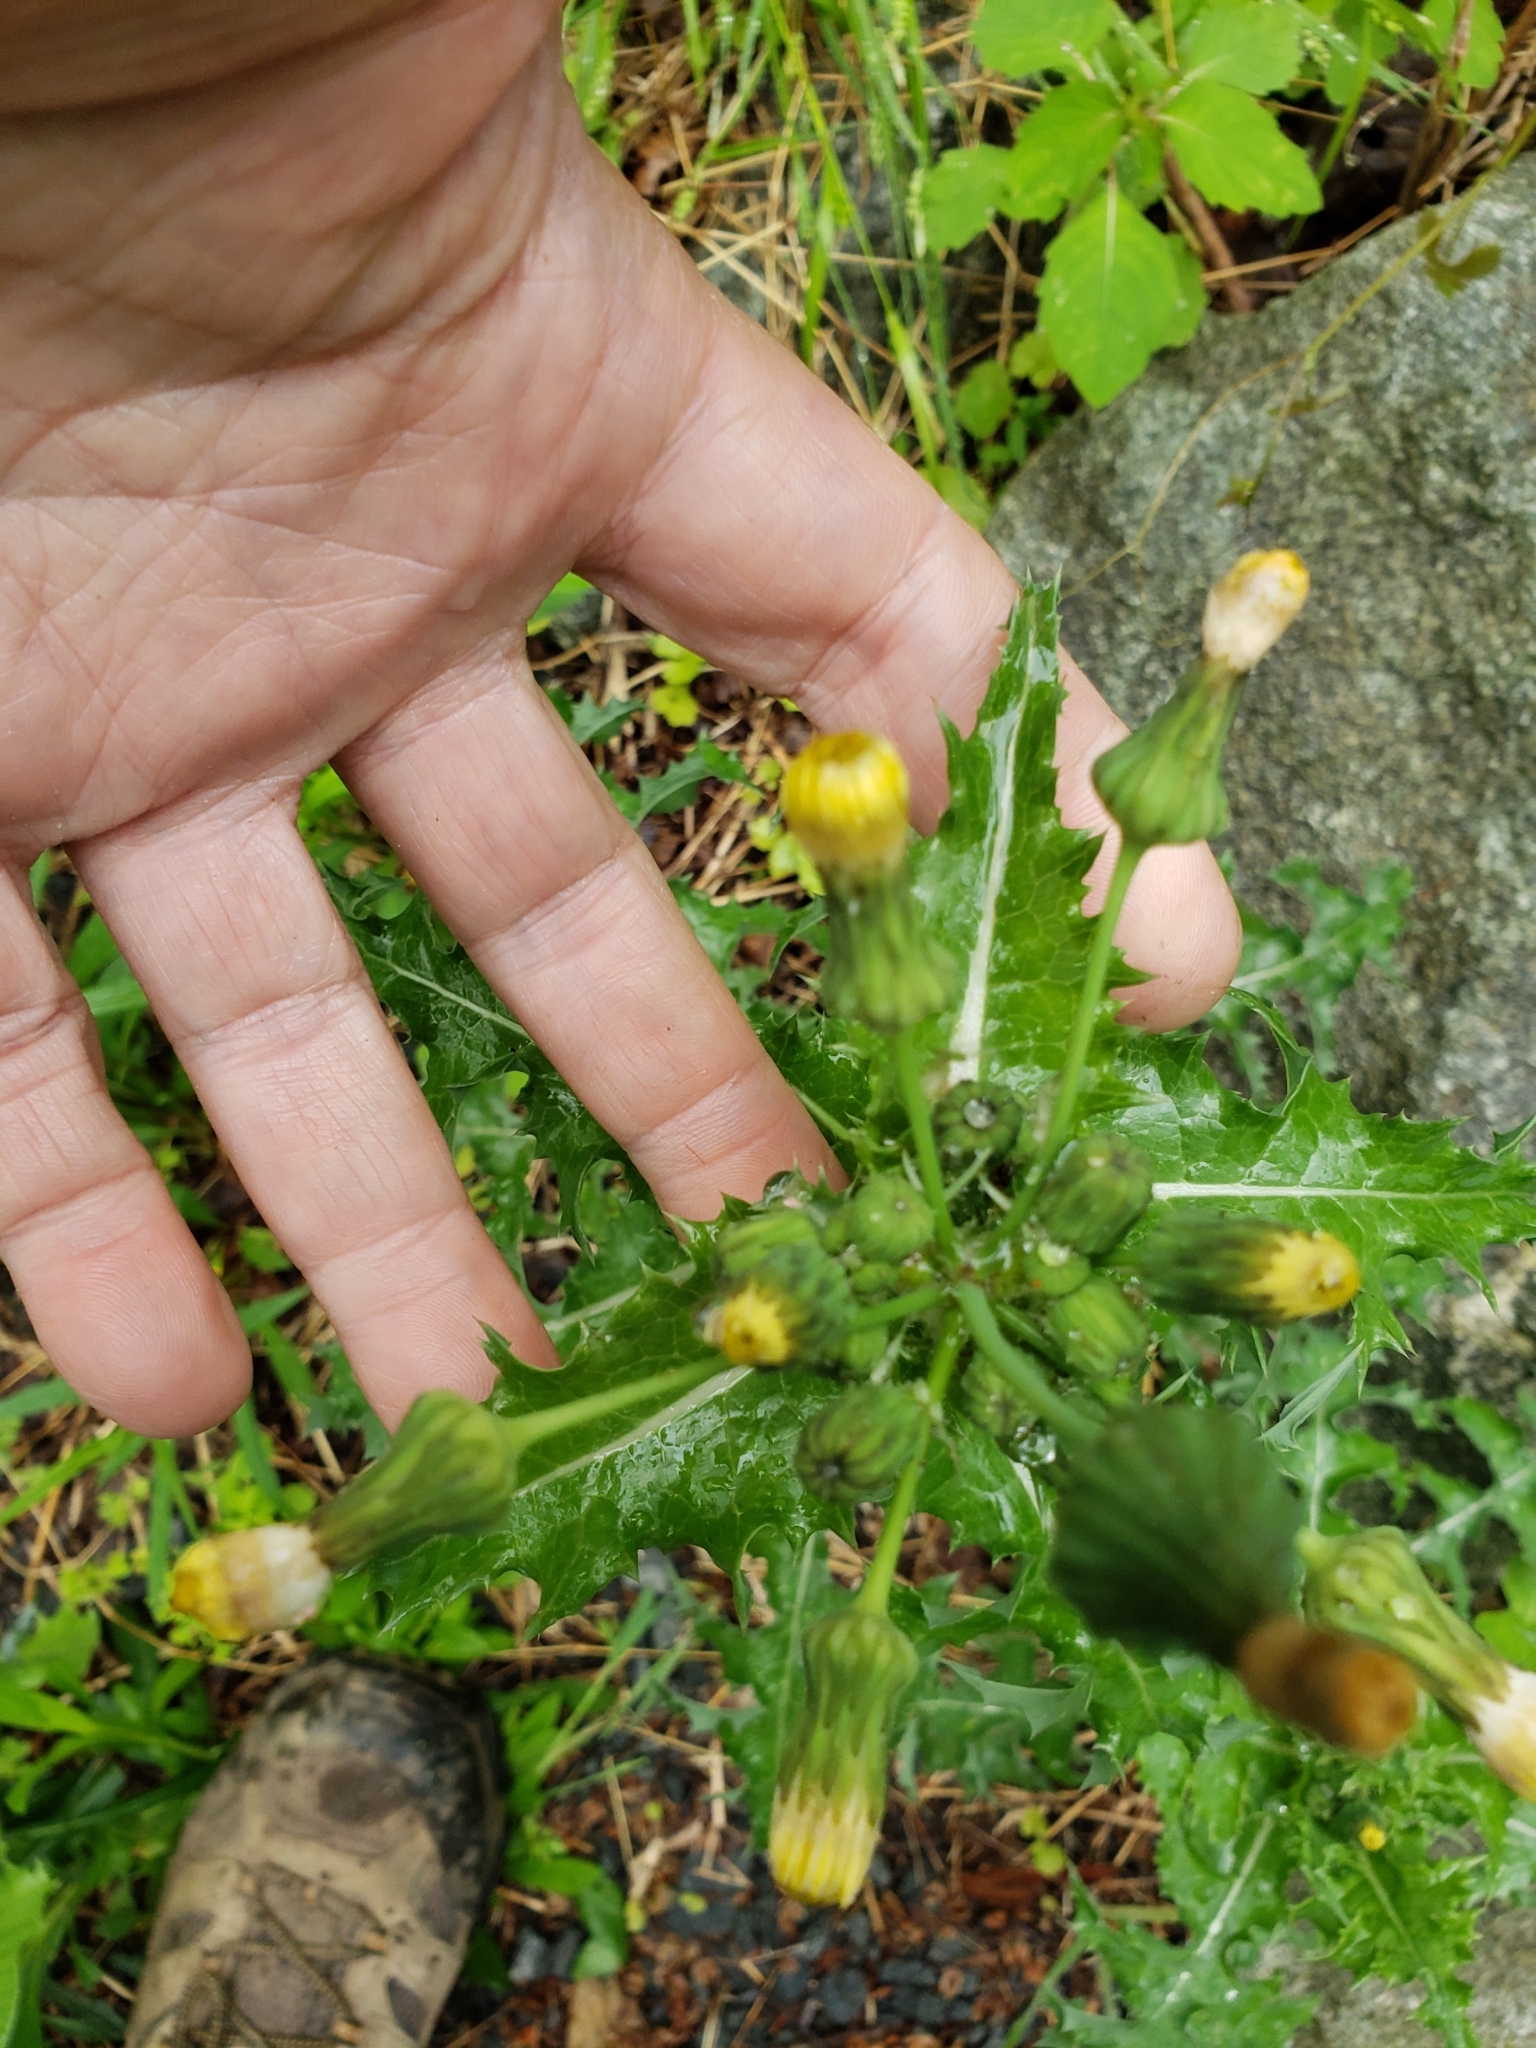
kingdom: Plantae
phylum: Tracheophyta
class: Magnoliopsida
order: Asterales
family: Asteraceae
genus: Sonchus
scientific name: Sonchus asper
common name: Prickly sow-thistle
